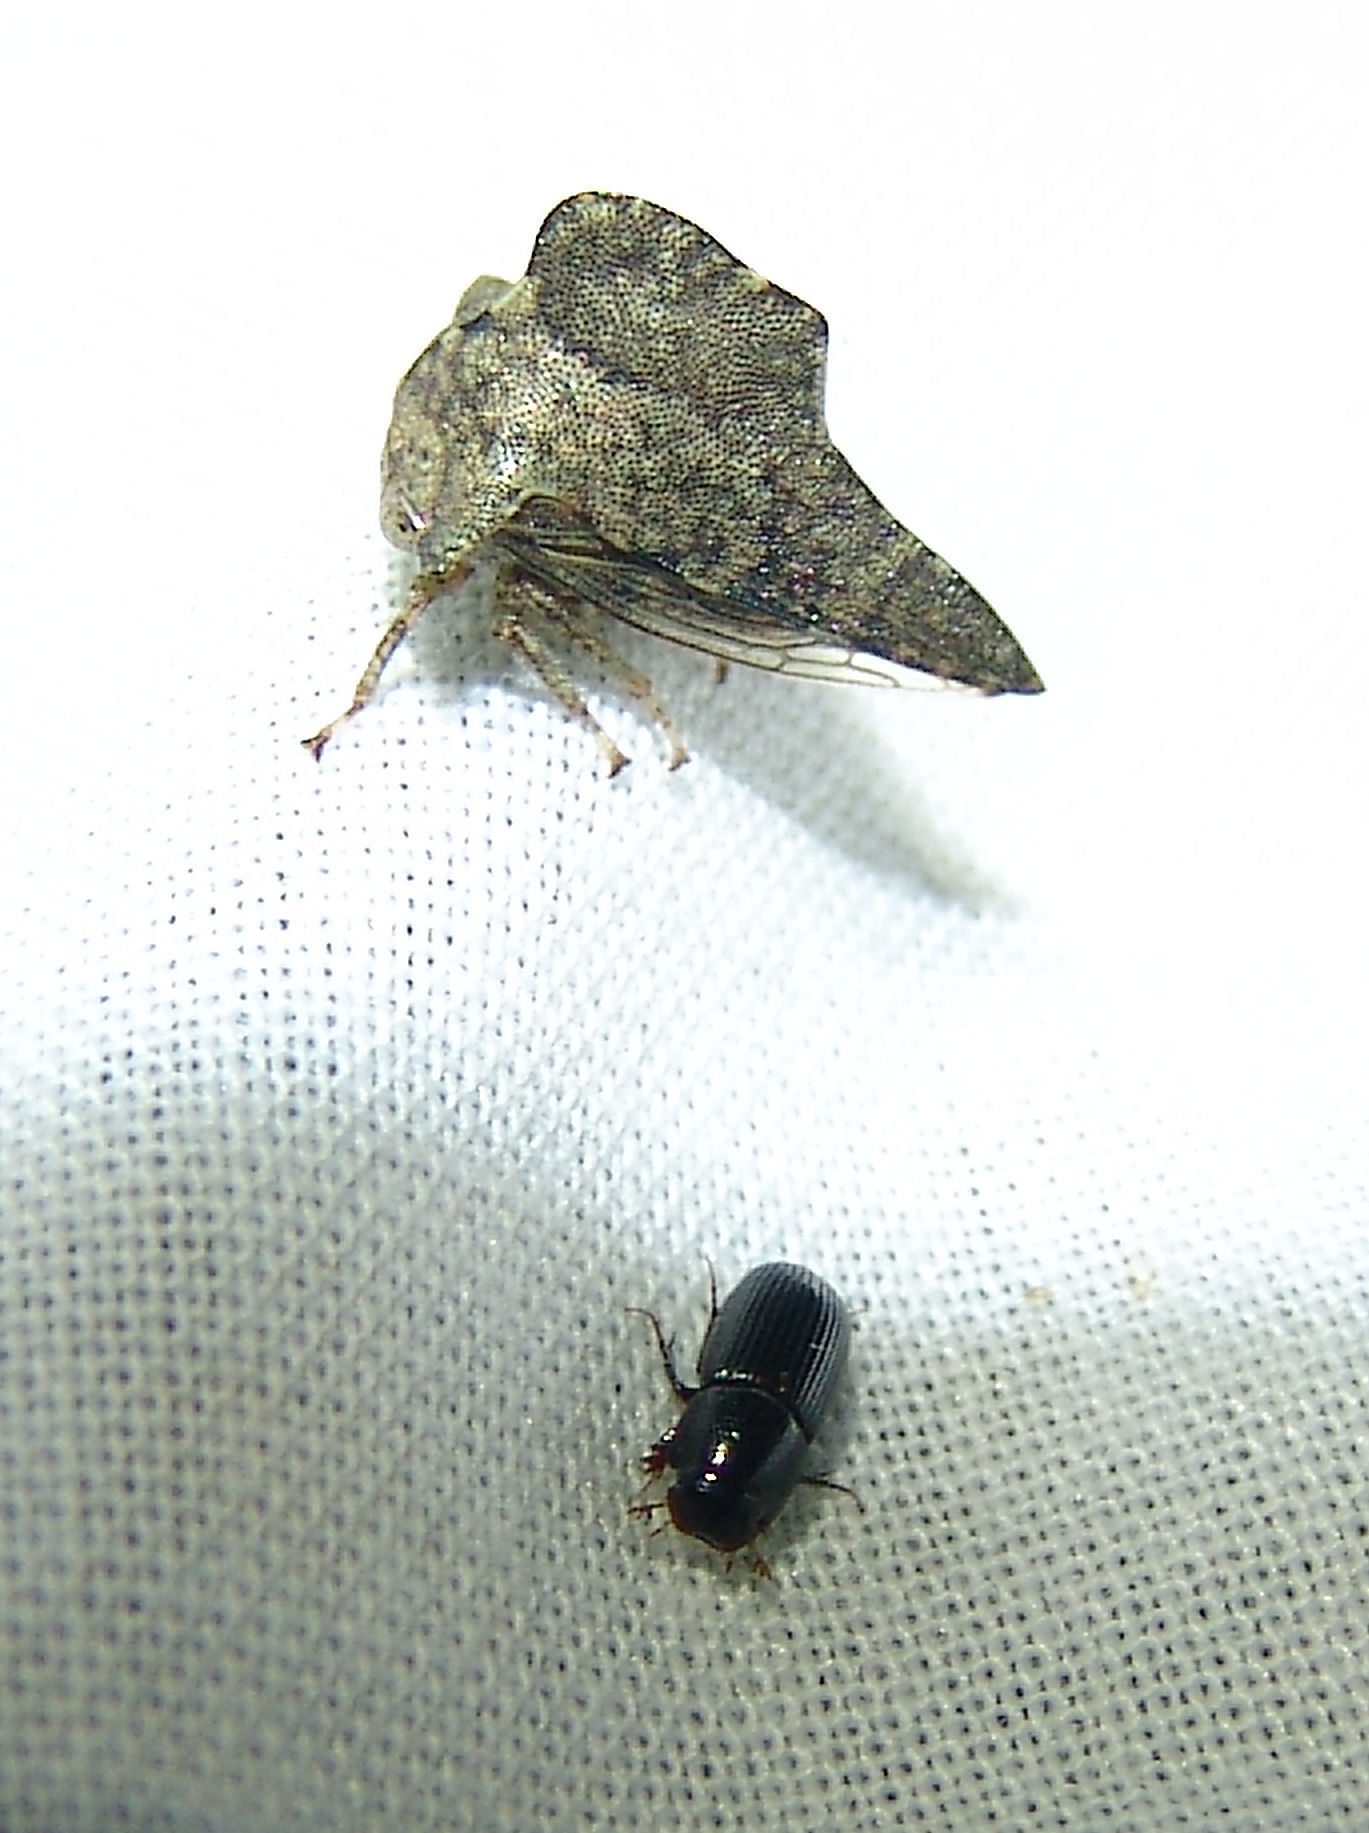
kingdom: Animalia
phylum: Arthropoda
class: Insecta
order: Hemiptera
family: Membracidae
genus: Heliria
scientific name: Heliria cornutula
